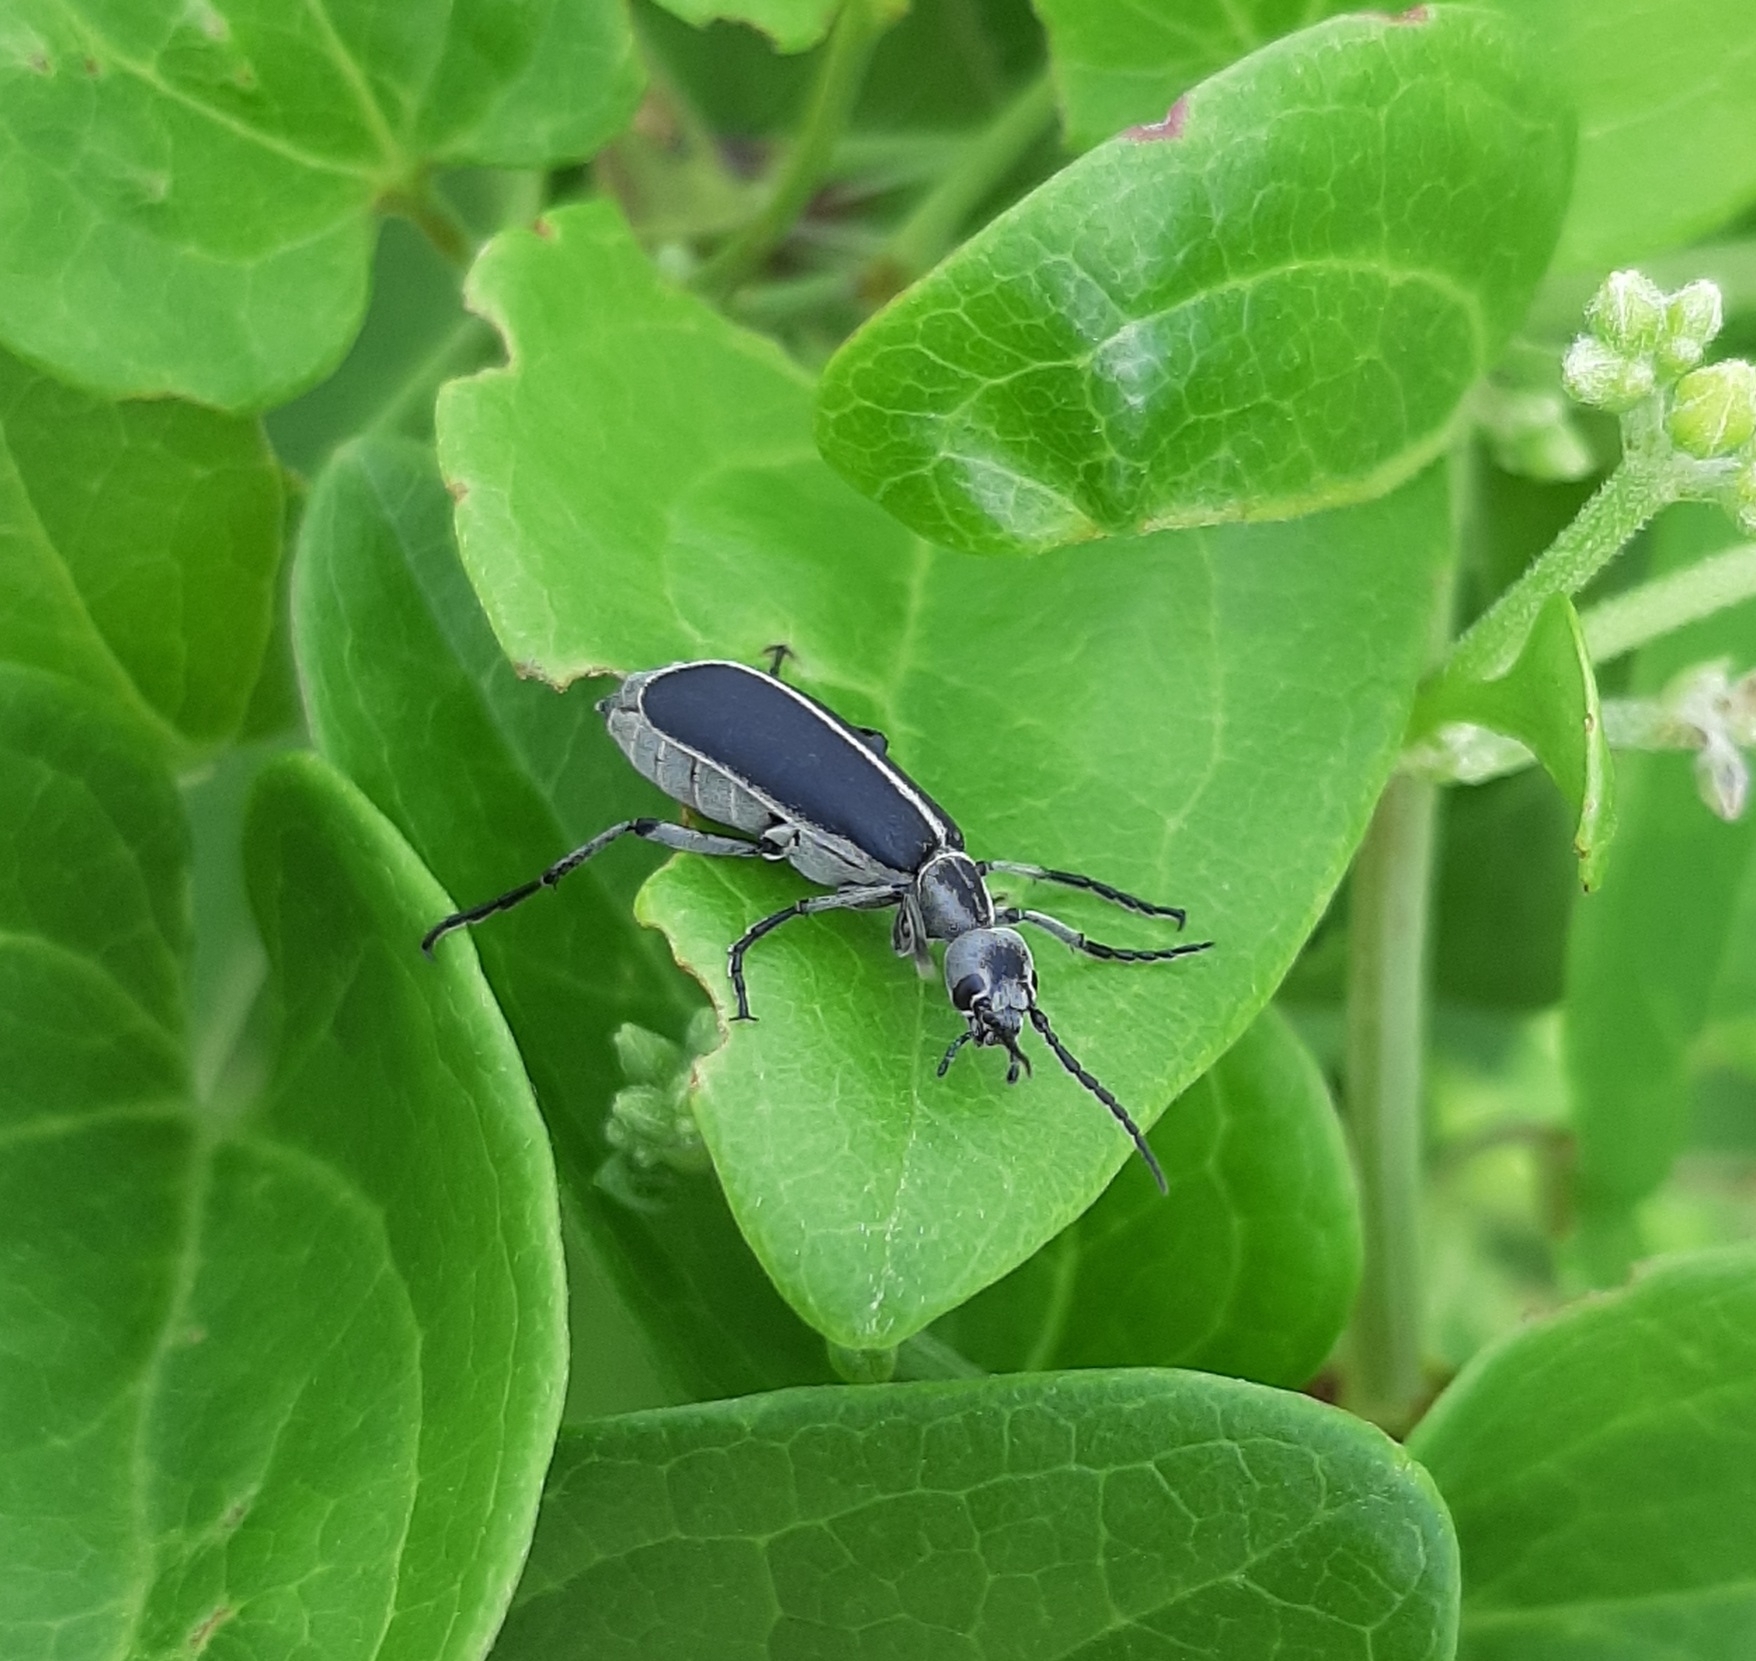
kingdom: Animalia
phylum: Arthropoda
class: Insecta
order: Coleoptera
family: Meloidae
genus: Epicauta
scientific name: Epicauta cinerea
